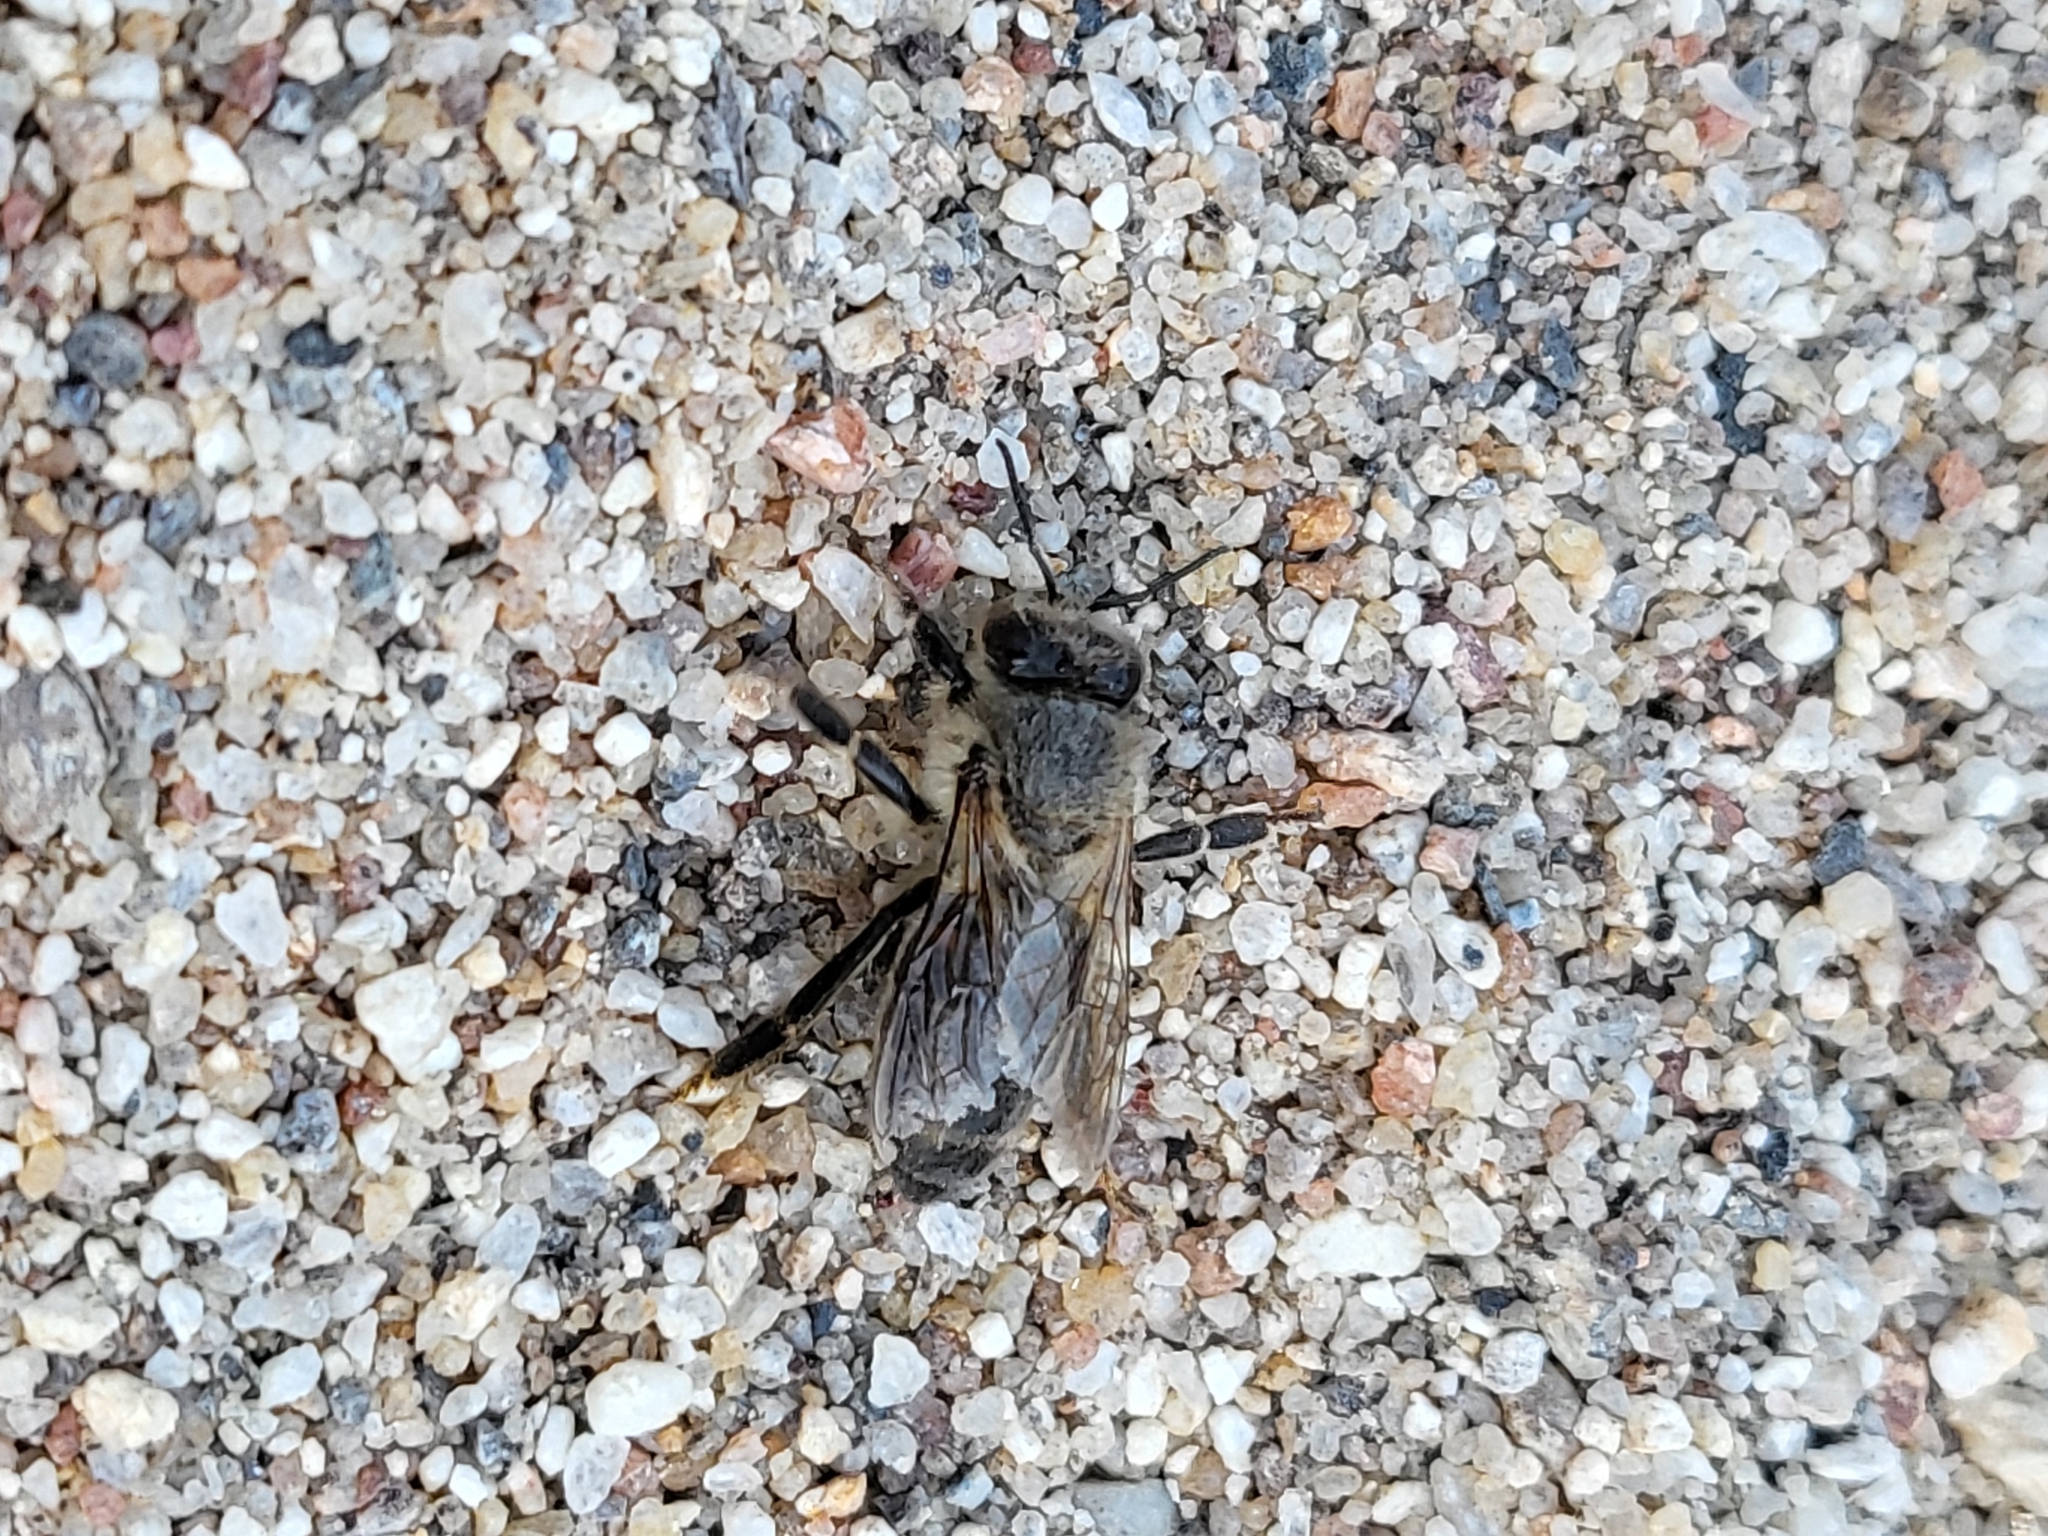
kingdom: Animalia
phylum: Arthropoda
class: Insecta
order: Hymenoptera
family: Apidae
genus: Apis
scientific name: Apis mellifera
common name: Honey bee
